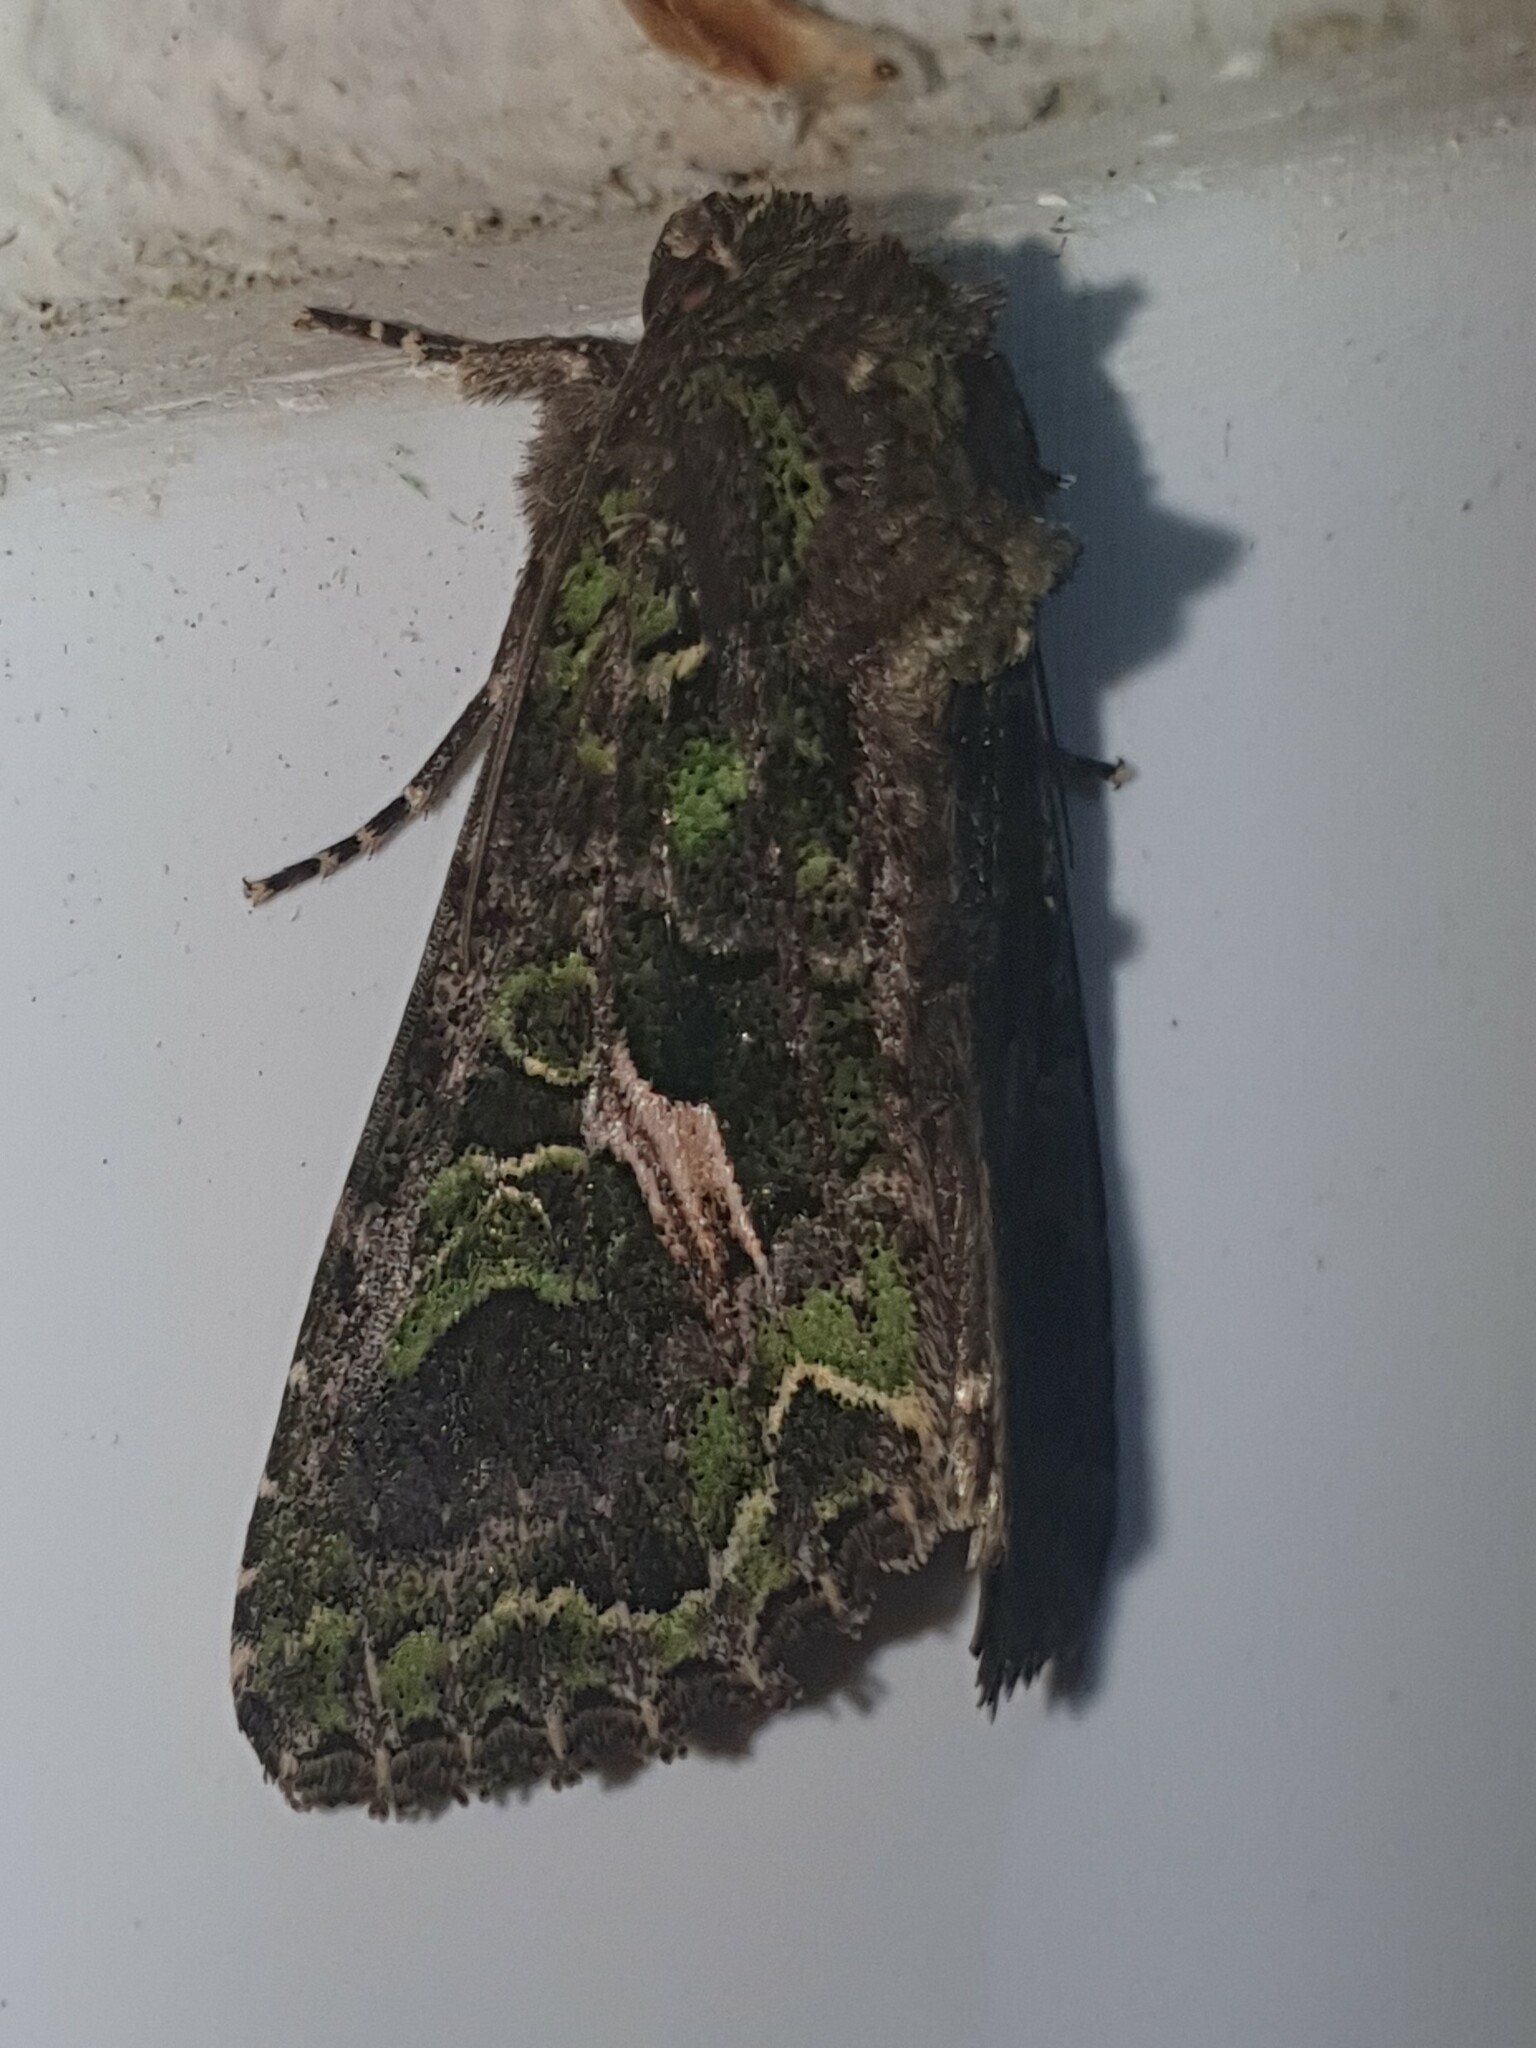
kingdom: Animalia
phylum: Arthropoda
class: Insecta
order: Lepidoptera
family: Noctuidae
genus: Trachea
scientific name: Trachea atriplicis
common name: Orache moth
